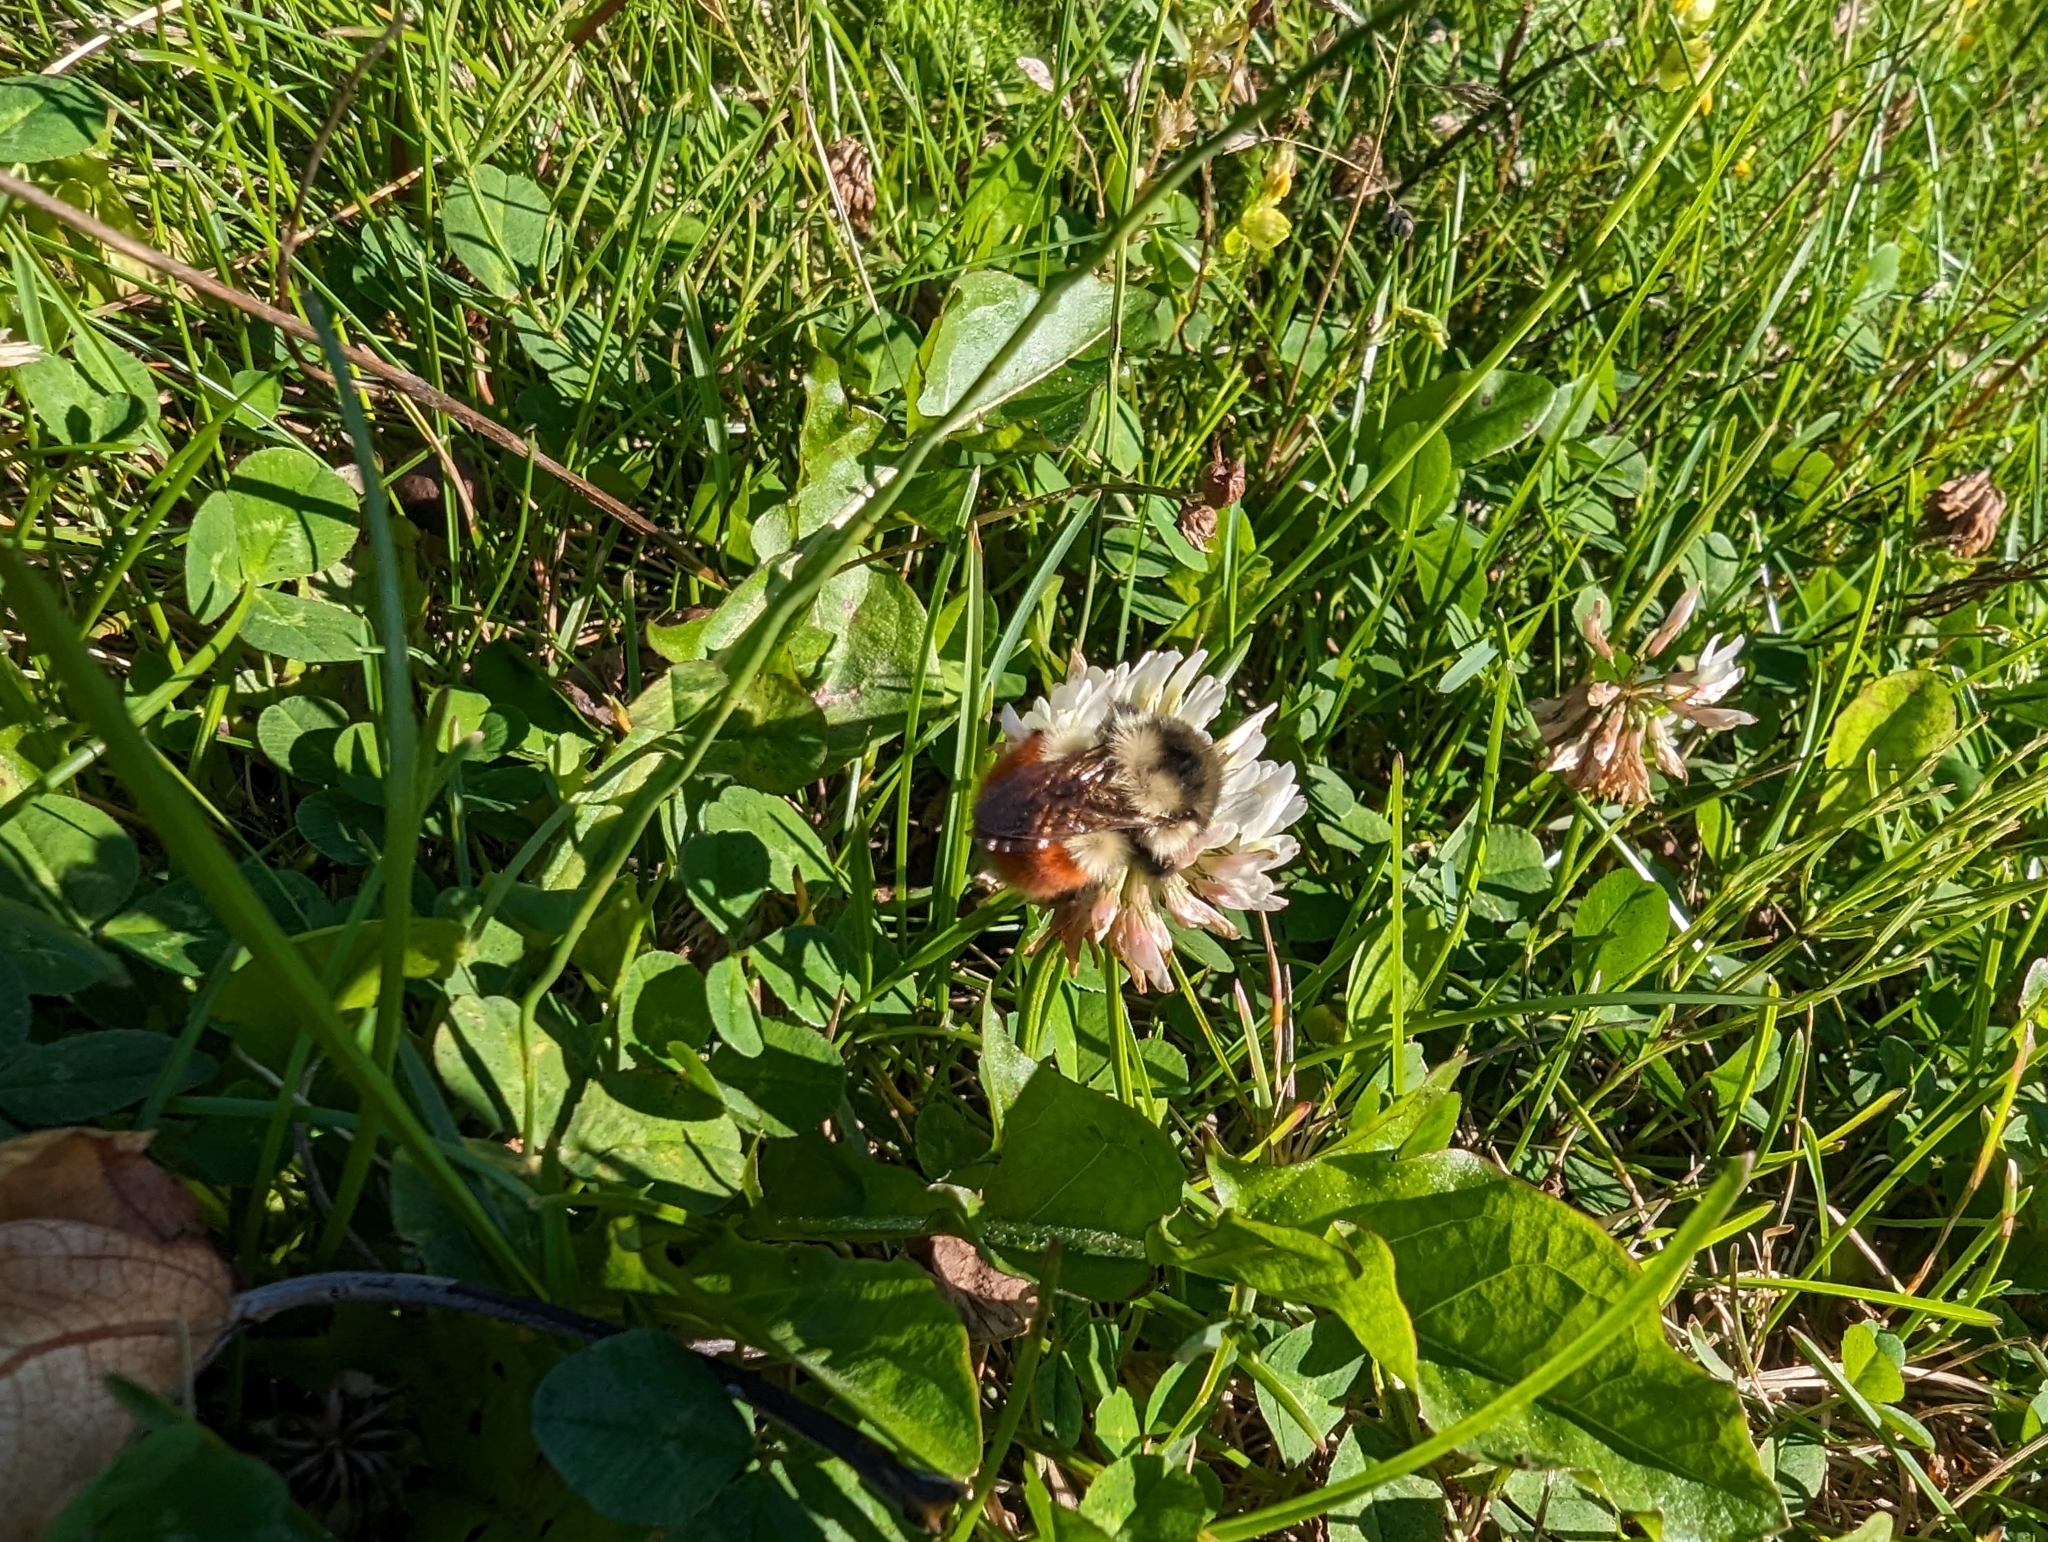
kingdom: Animalia
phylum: Arthropoda
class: Insecta
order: Hymenoptera
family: Apidae
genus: Bombus
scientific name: Bombus melanopygus
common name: Black tail bumble bee
